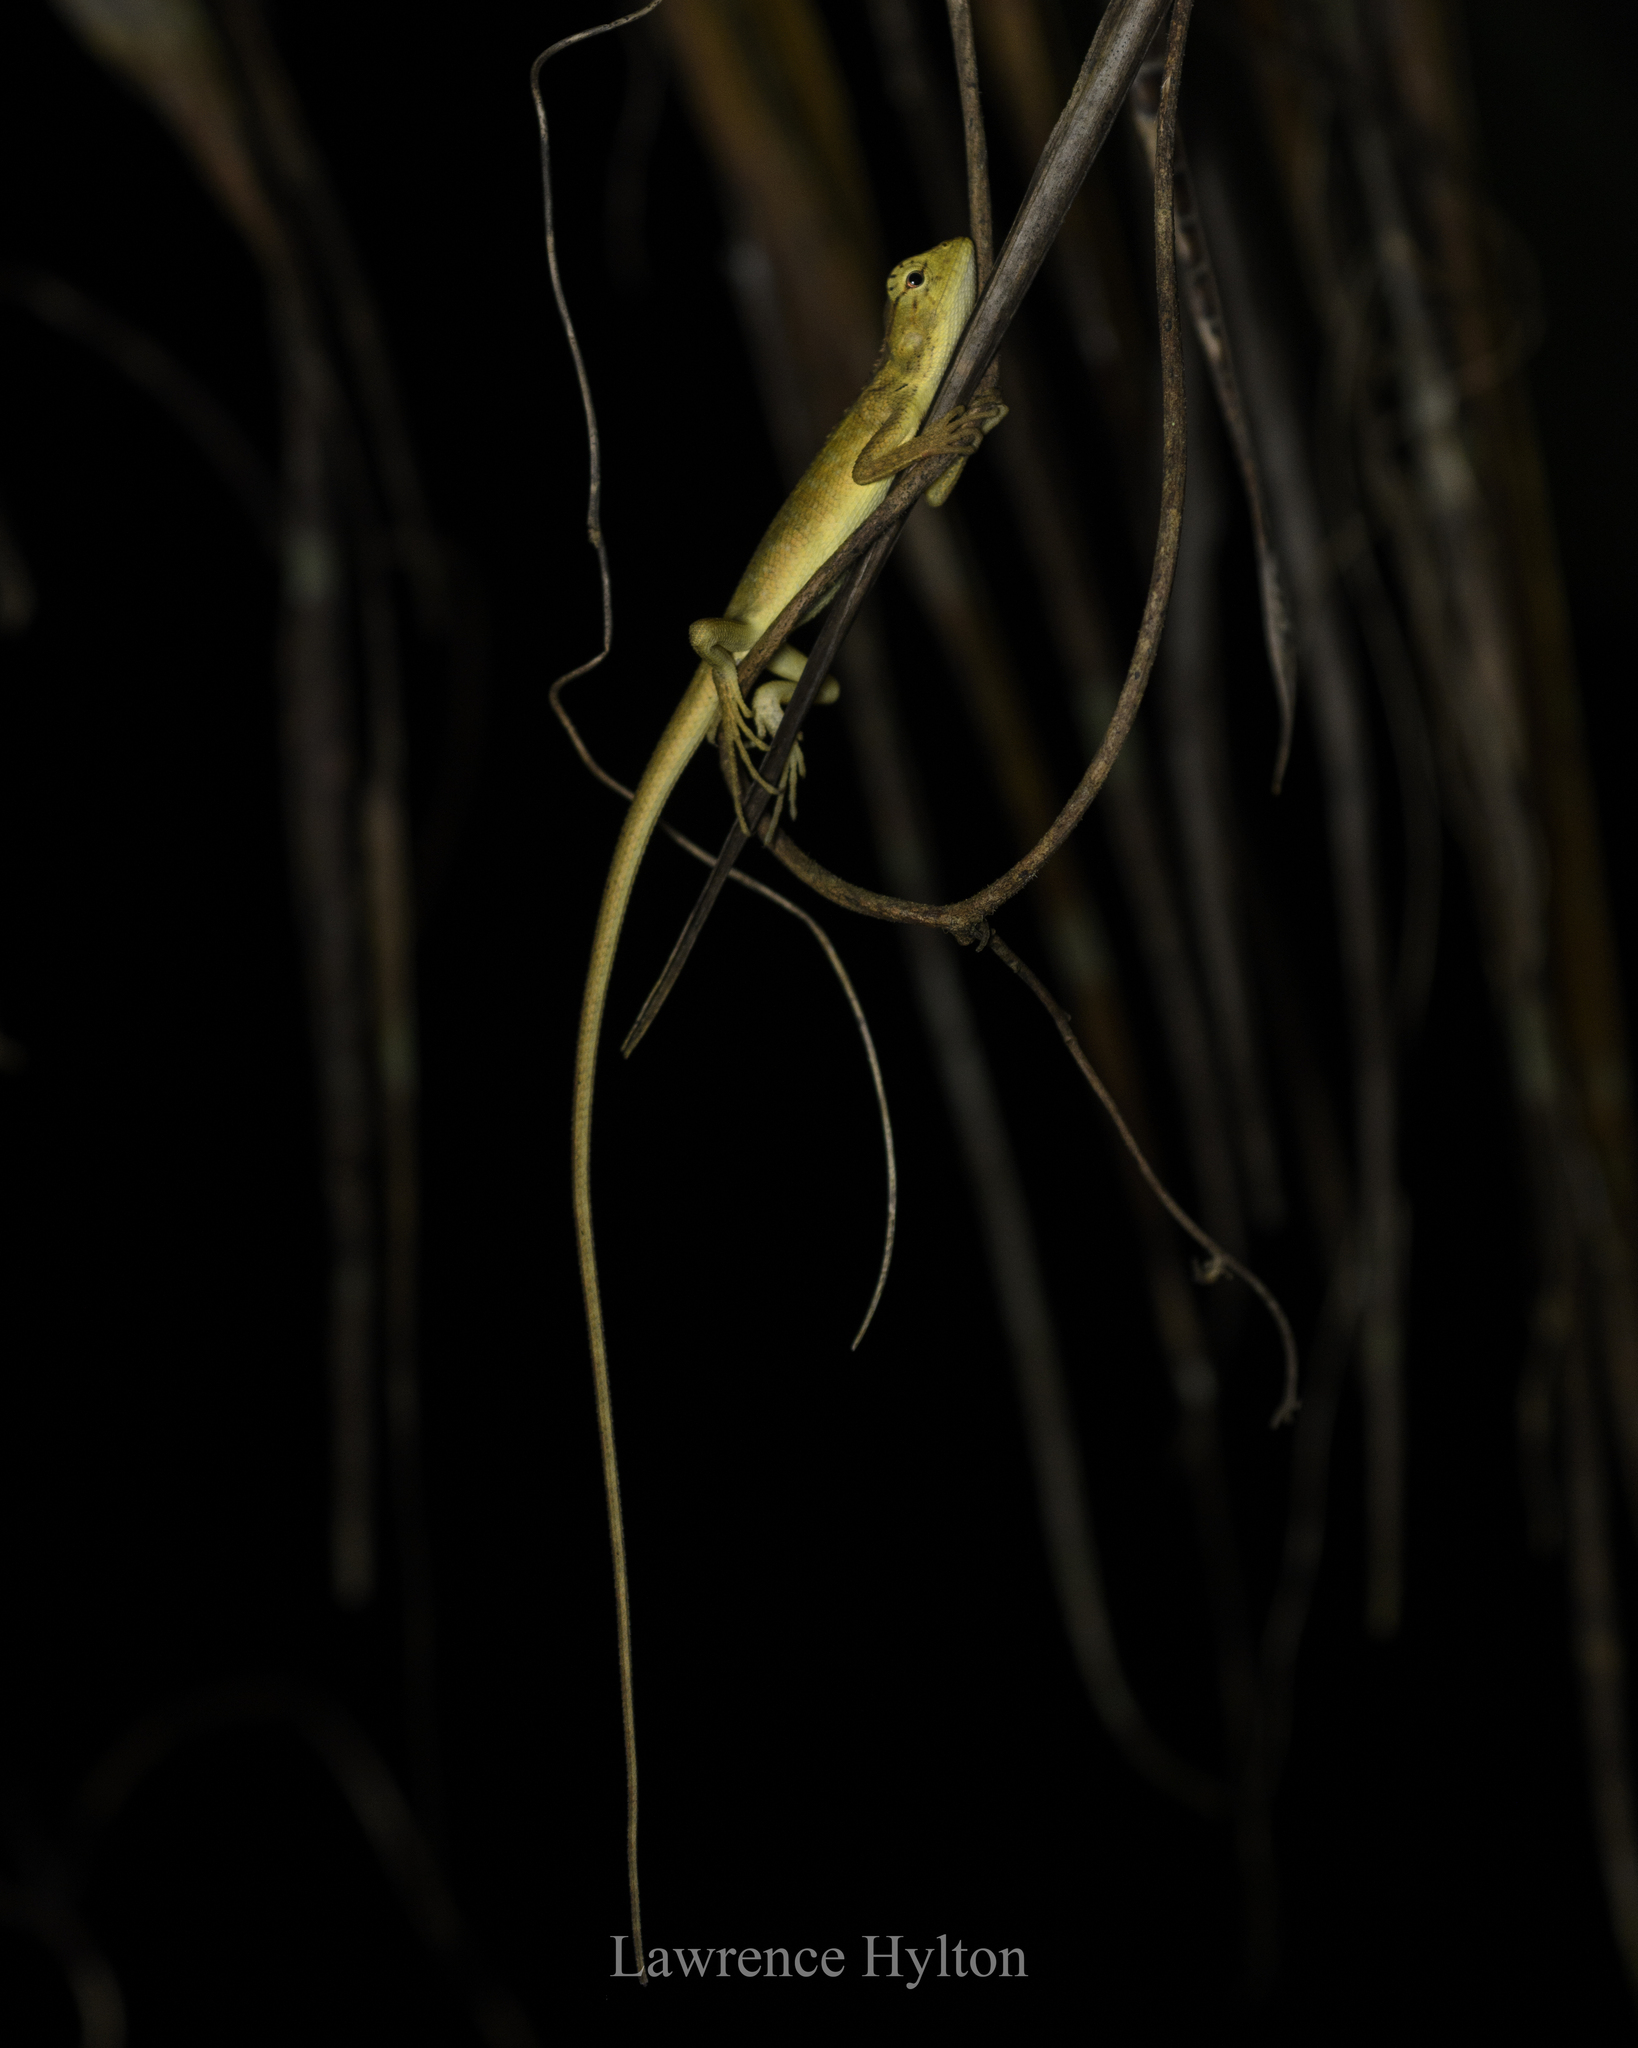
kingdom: Animalia
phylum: Chordata
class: Squamata
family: Agamidae
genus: Calotes
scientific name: Calotes emma
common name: Thailand bloodsucker
